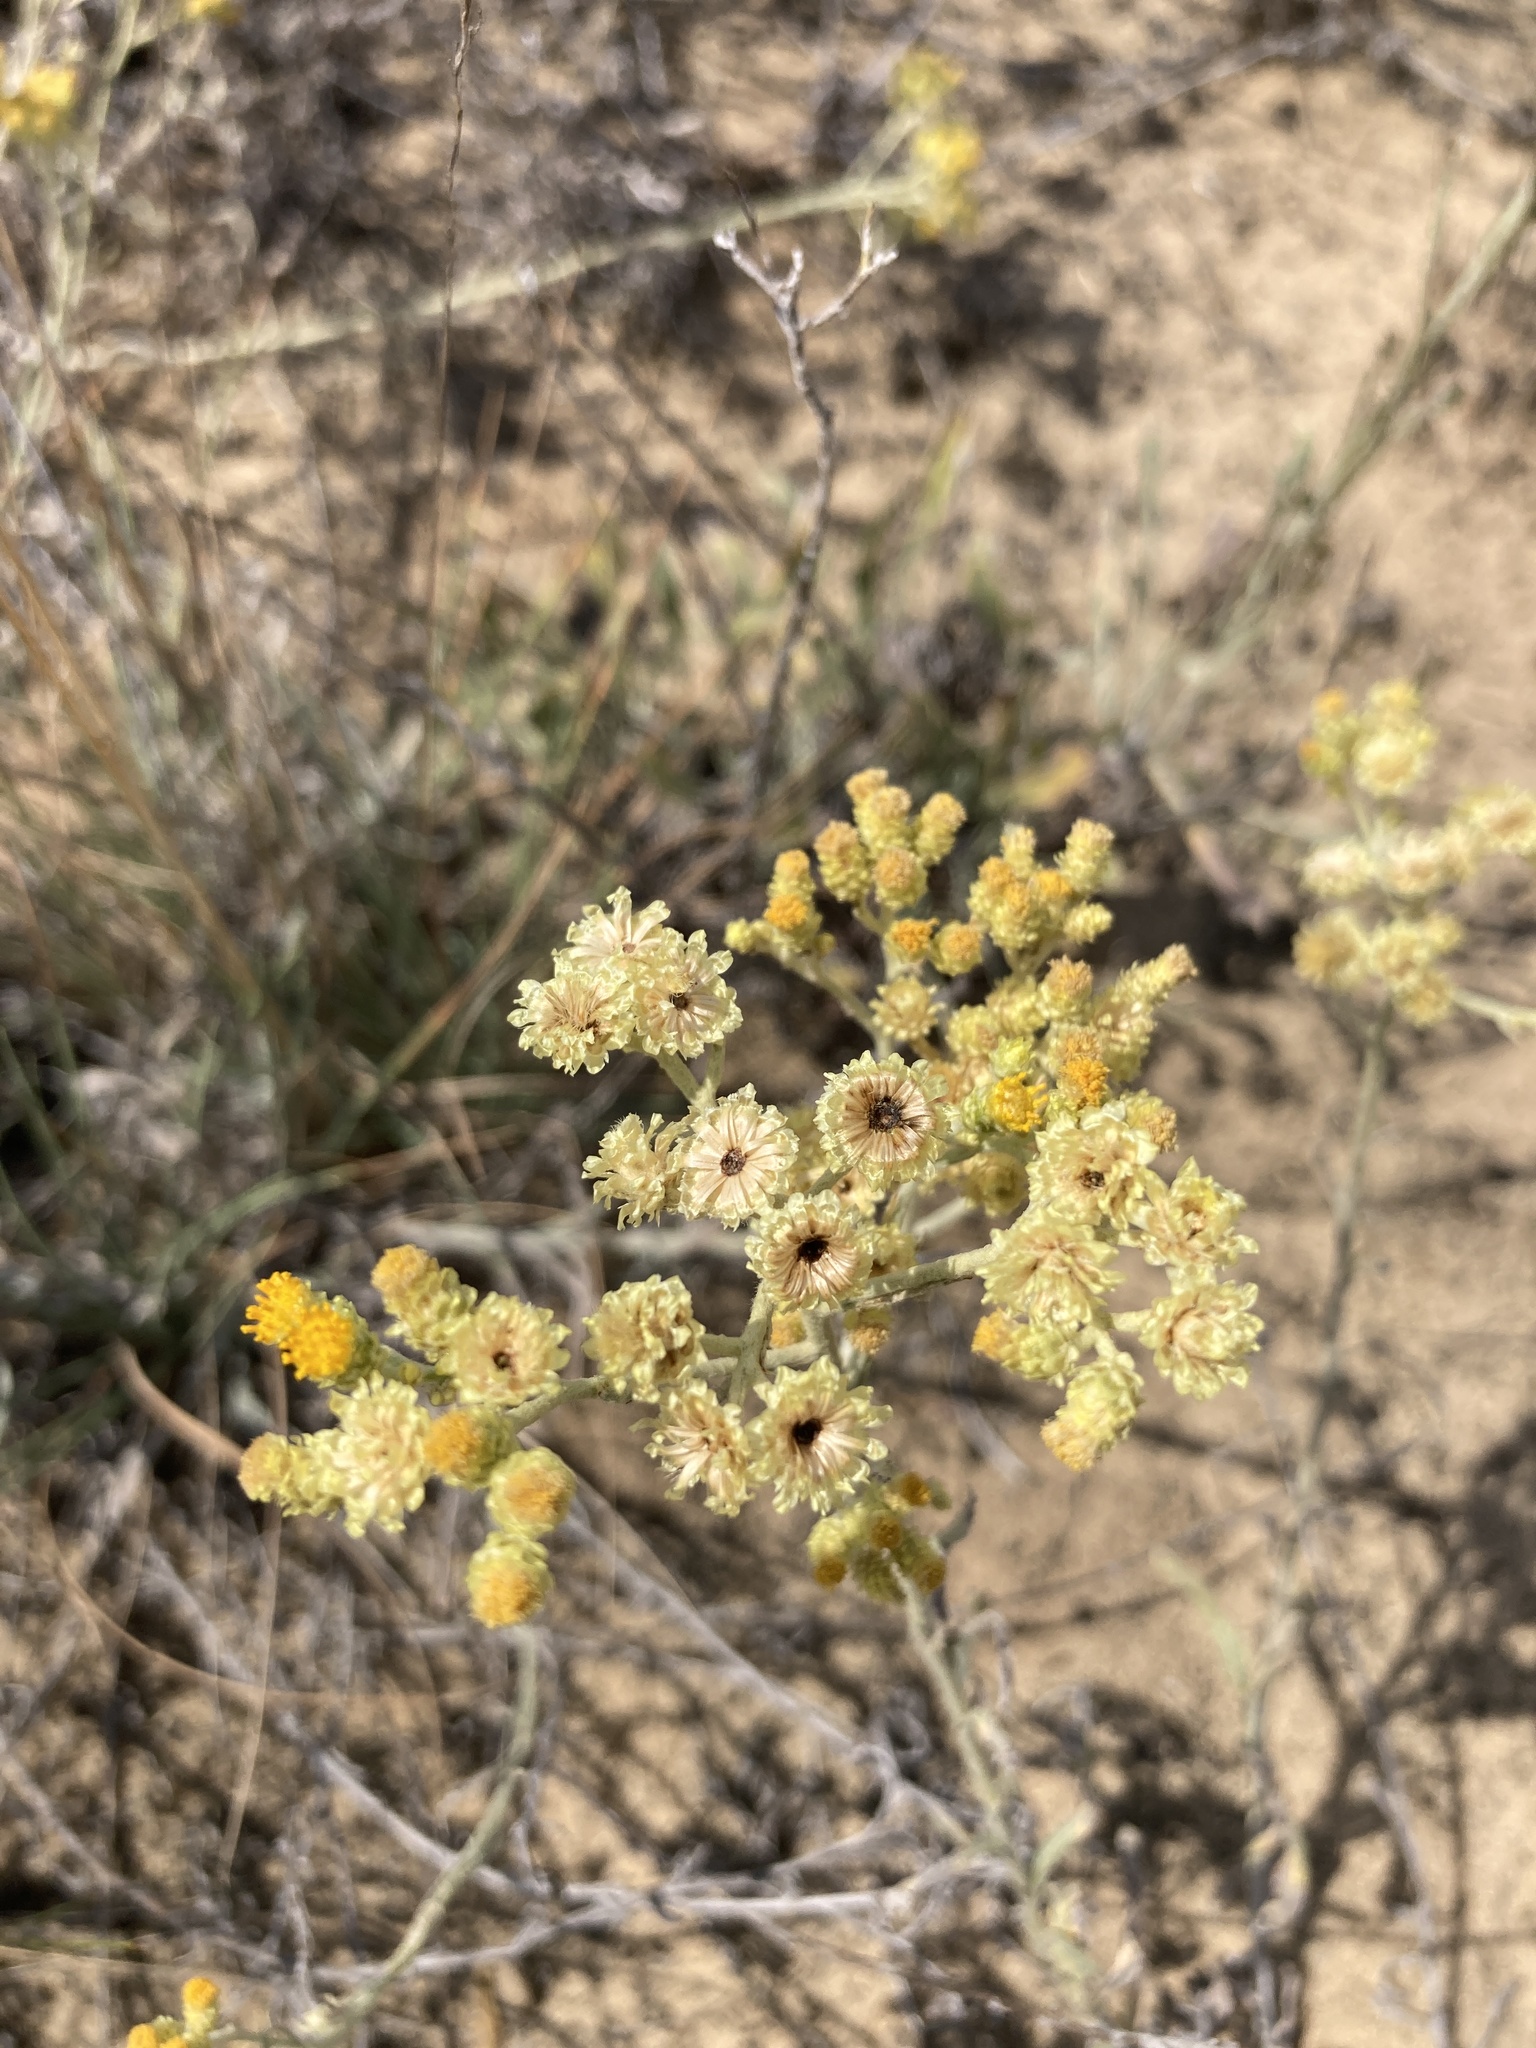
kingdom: Plantae
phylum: Tracheophyta
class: Magnoliopsida
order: Asterales
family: Asteraceae
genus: Helichrysum
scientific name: Helichrysum arenarium
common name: Strawflower
